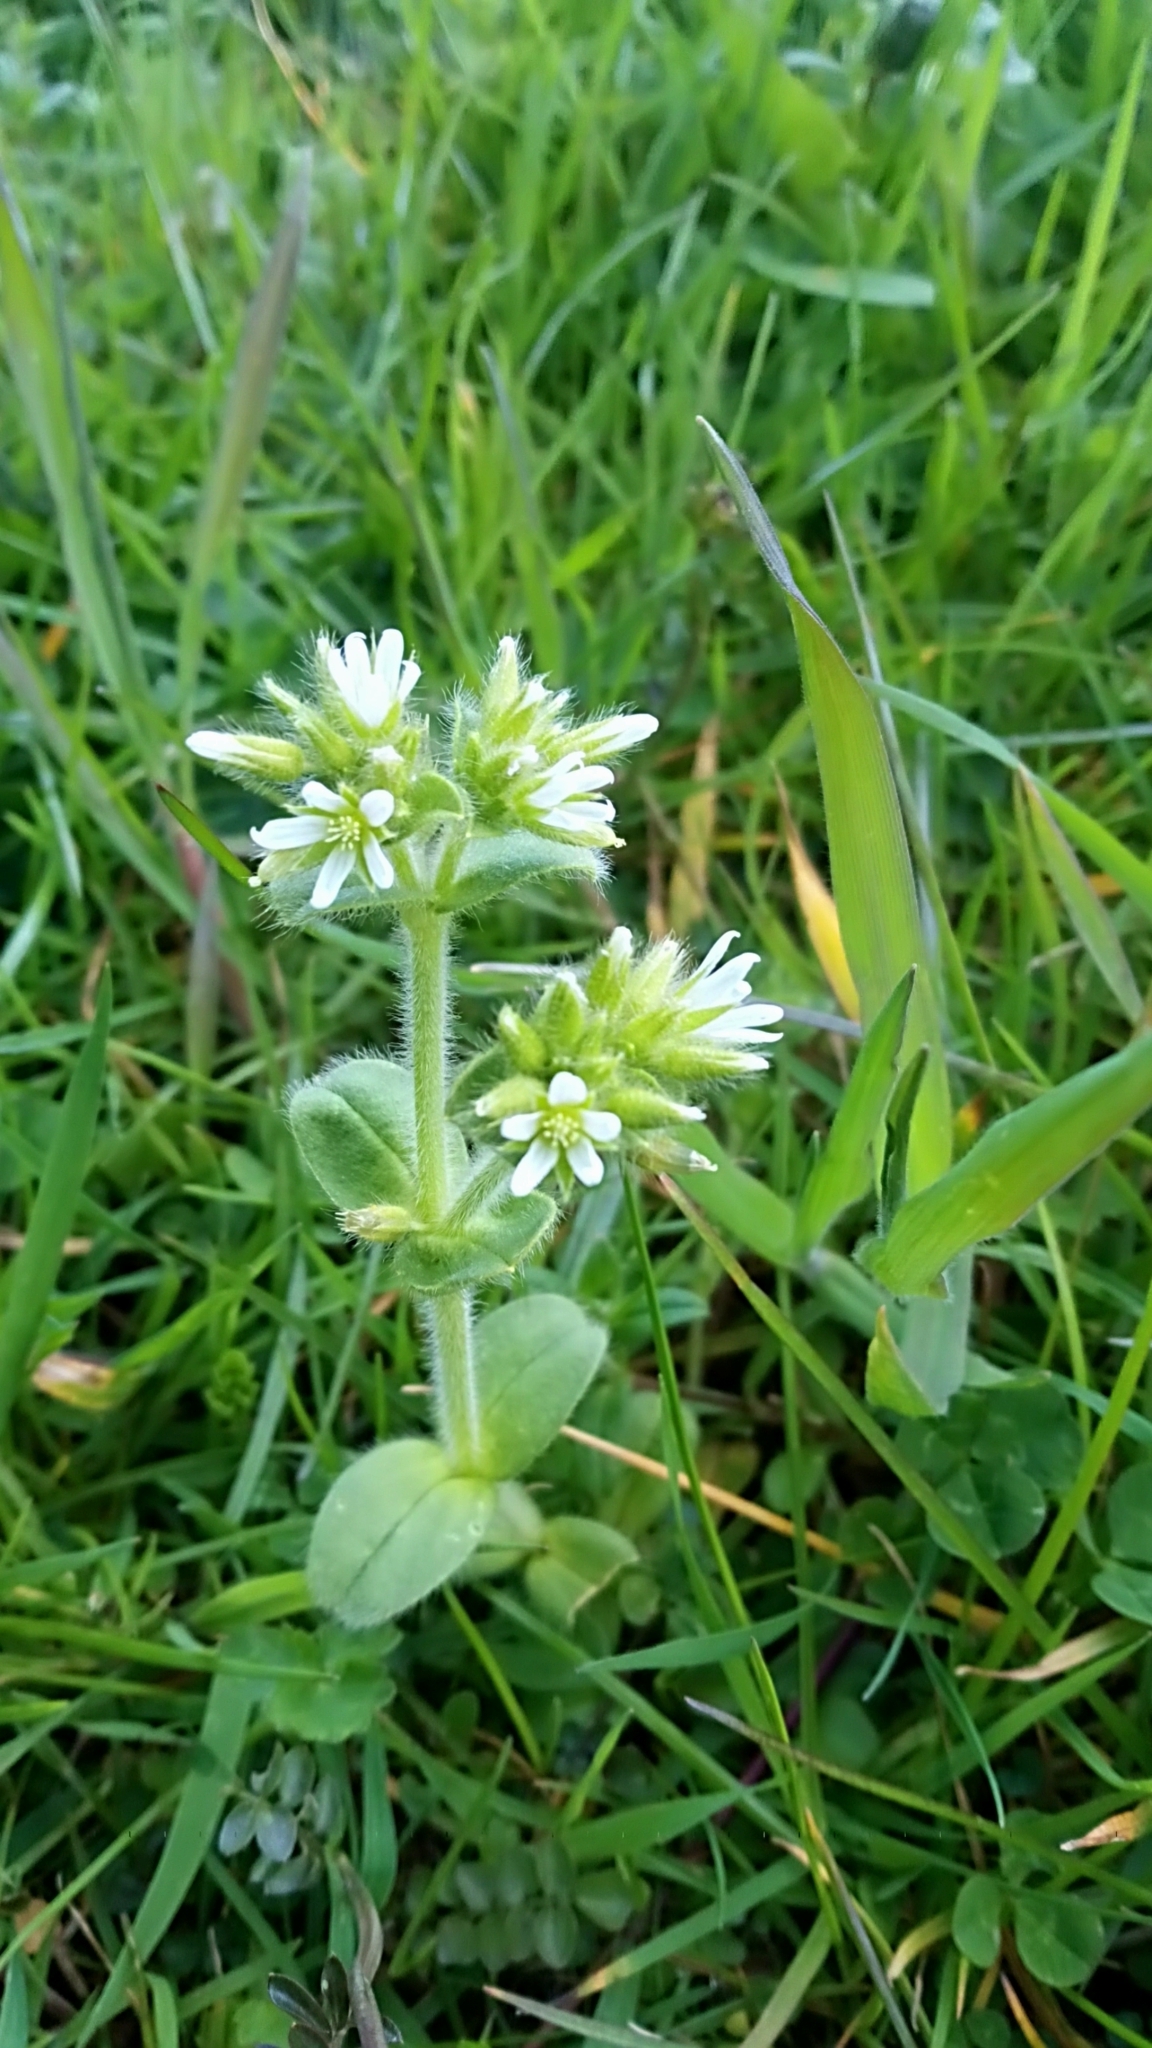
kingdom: Plantae
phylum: Tracheophyta
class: Magnoliopsida
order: Caryophyllales
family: Caryophyllaceae
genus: Cerastium
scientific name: Cerastium glomeratum
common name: Sticky chickweed
